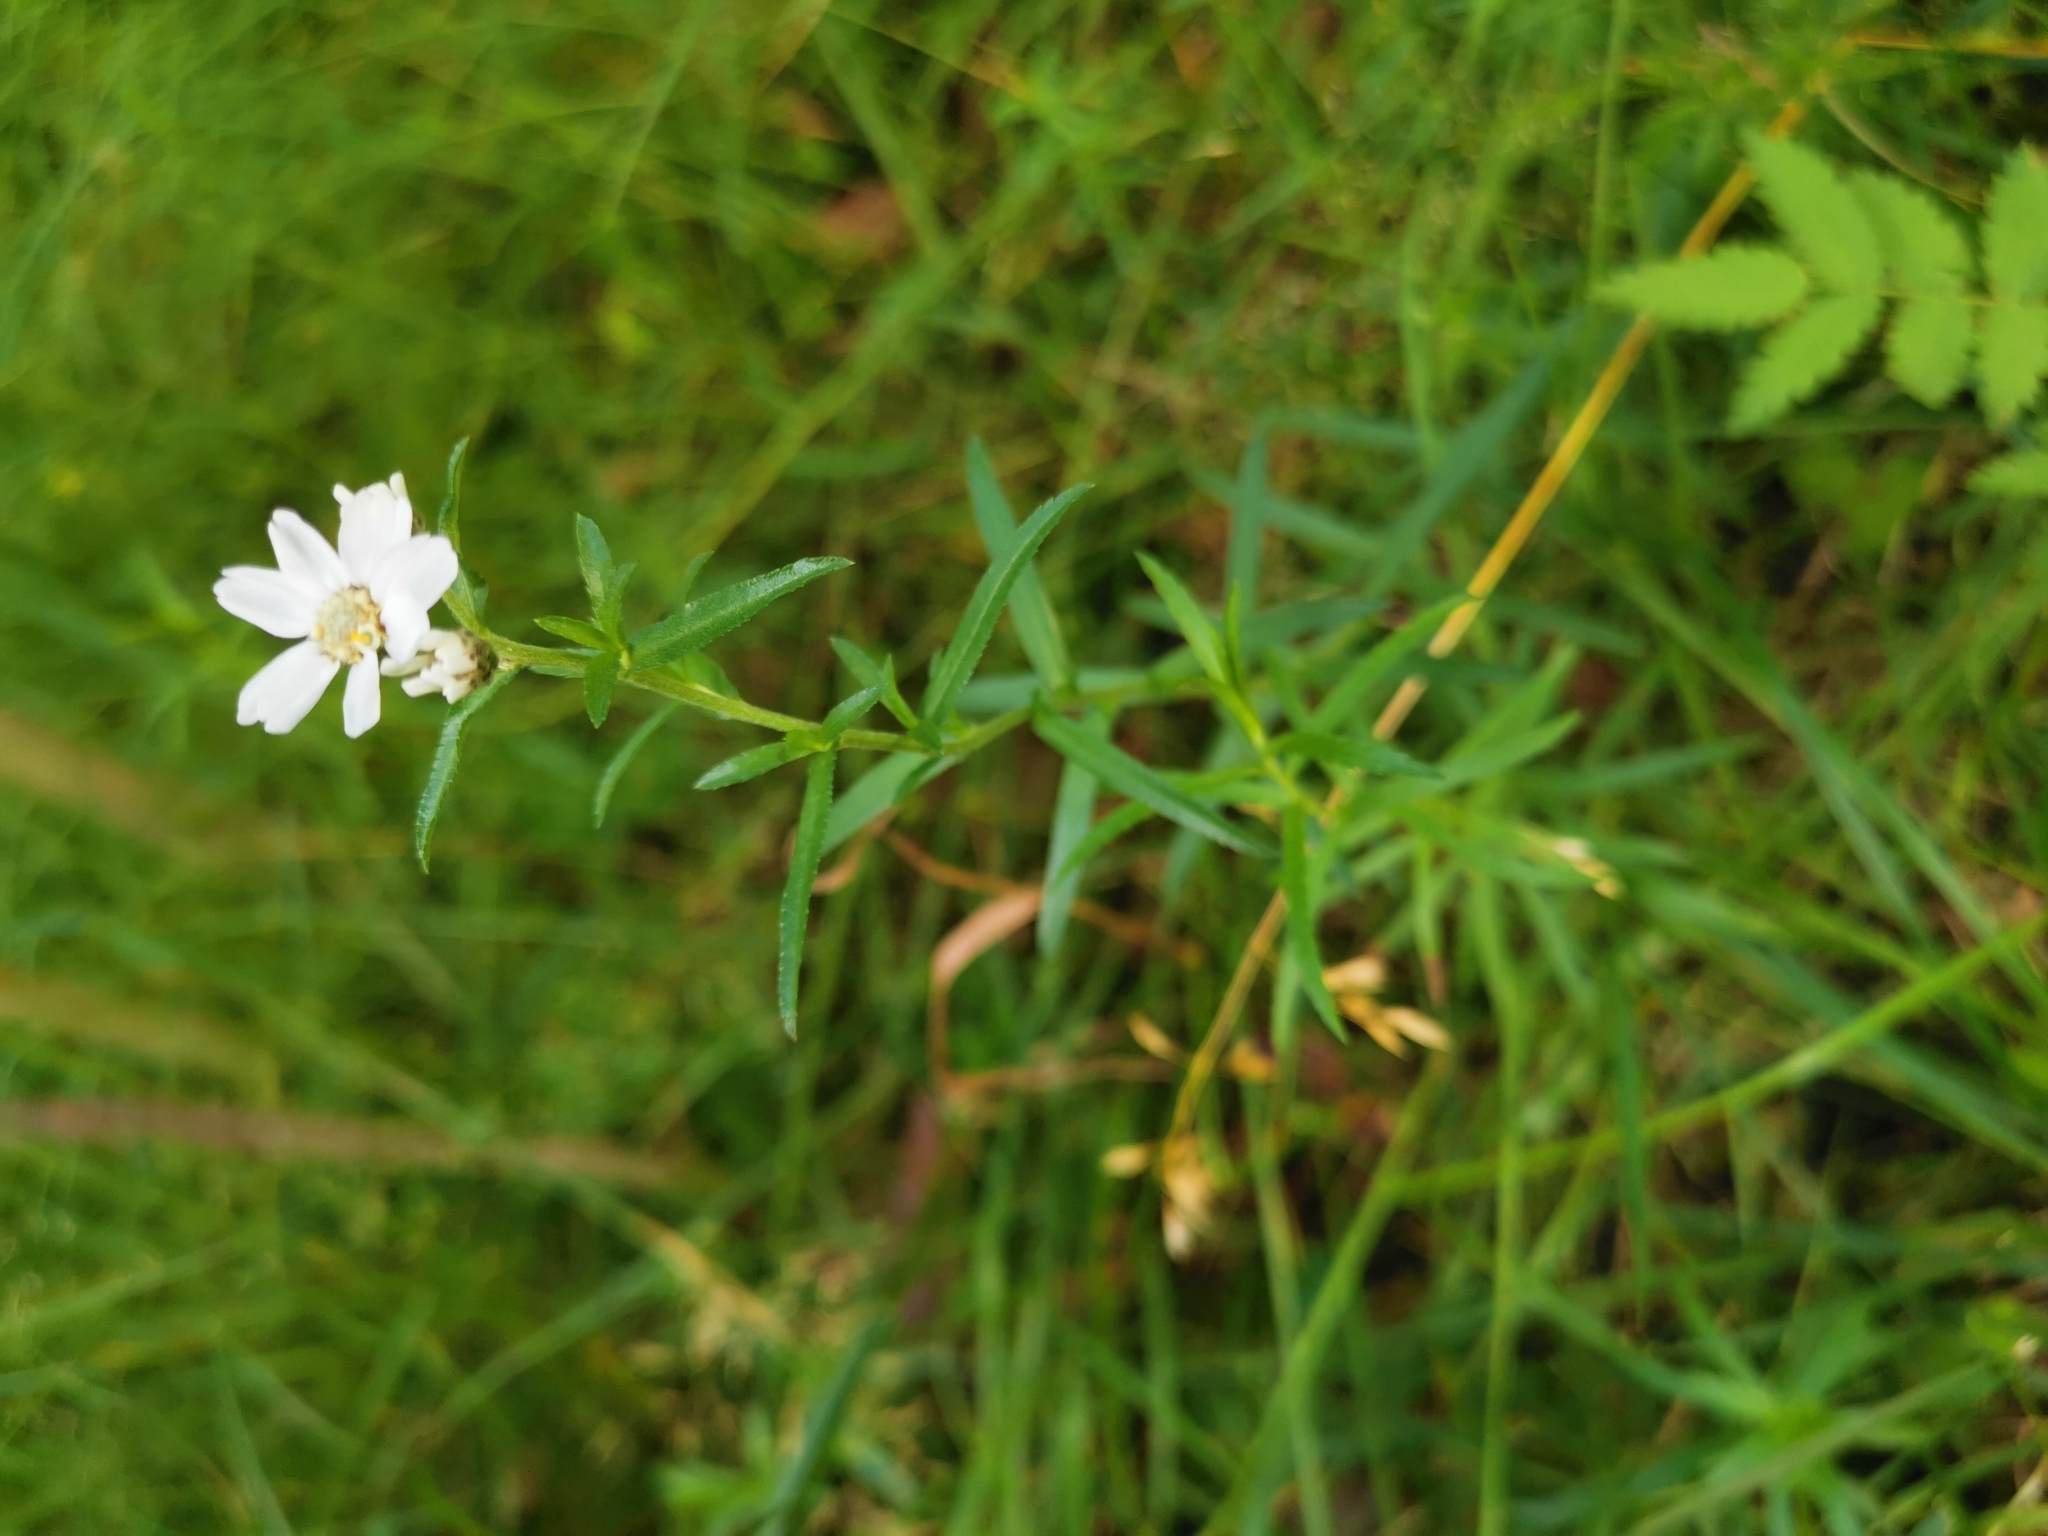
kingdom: Plantae
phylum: Tracheophyta
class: Magnoliopsida
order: Asterales
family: Asteraceae
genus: Achillea
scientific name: Achillea ptarmica
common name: Sneezeweed
